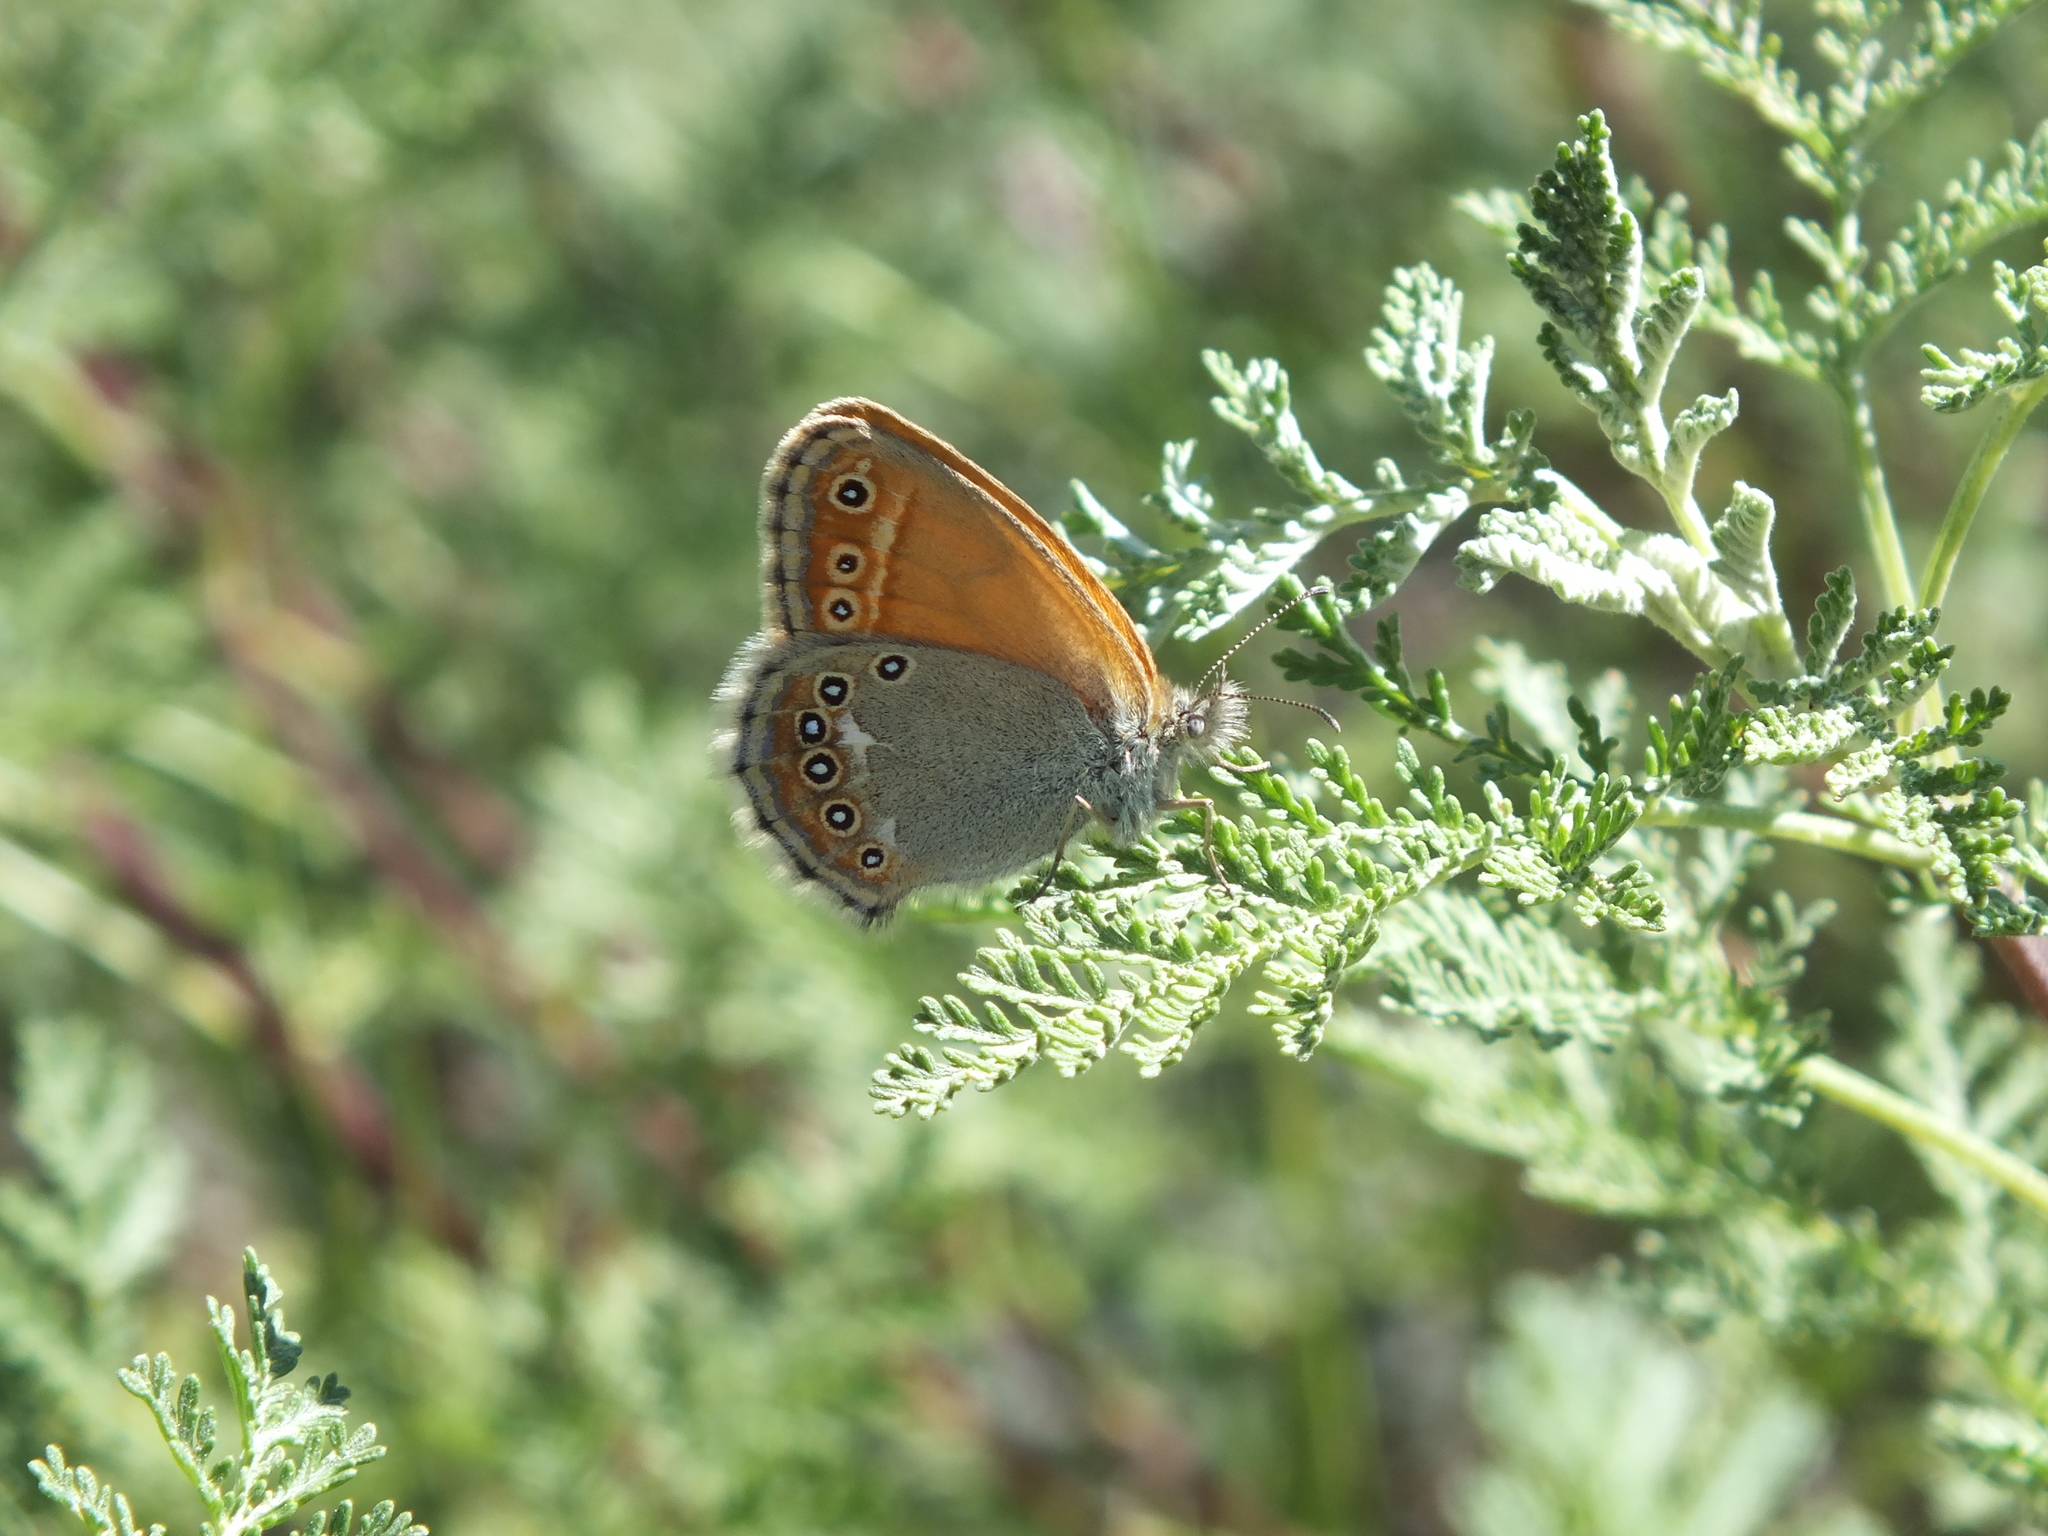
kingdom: Animalia
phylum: Arthropoda
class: Insecta
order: Lepidoptera
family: Nymphalidae
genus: Coenonympha
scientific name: Coenonympha amaryllis
